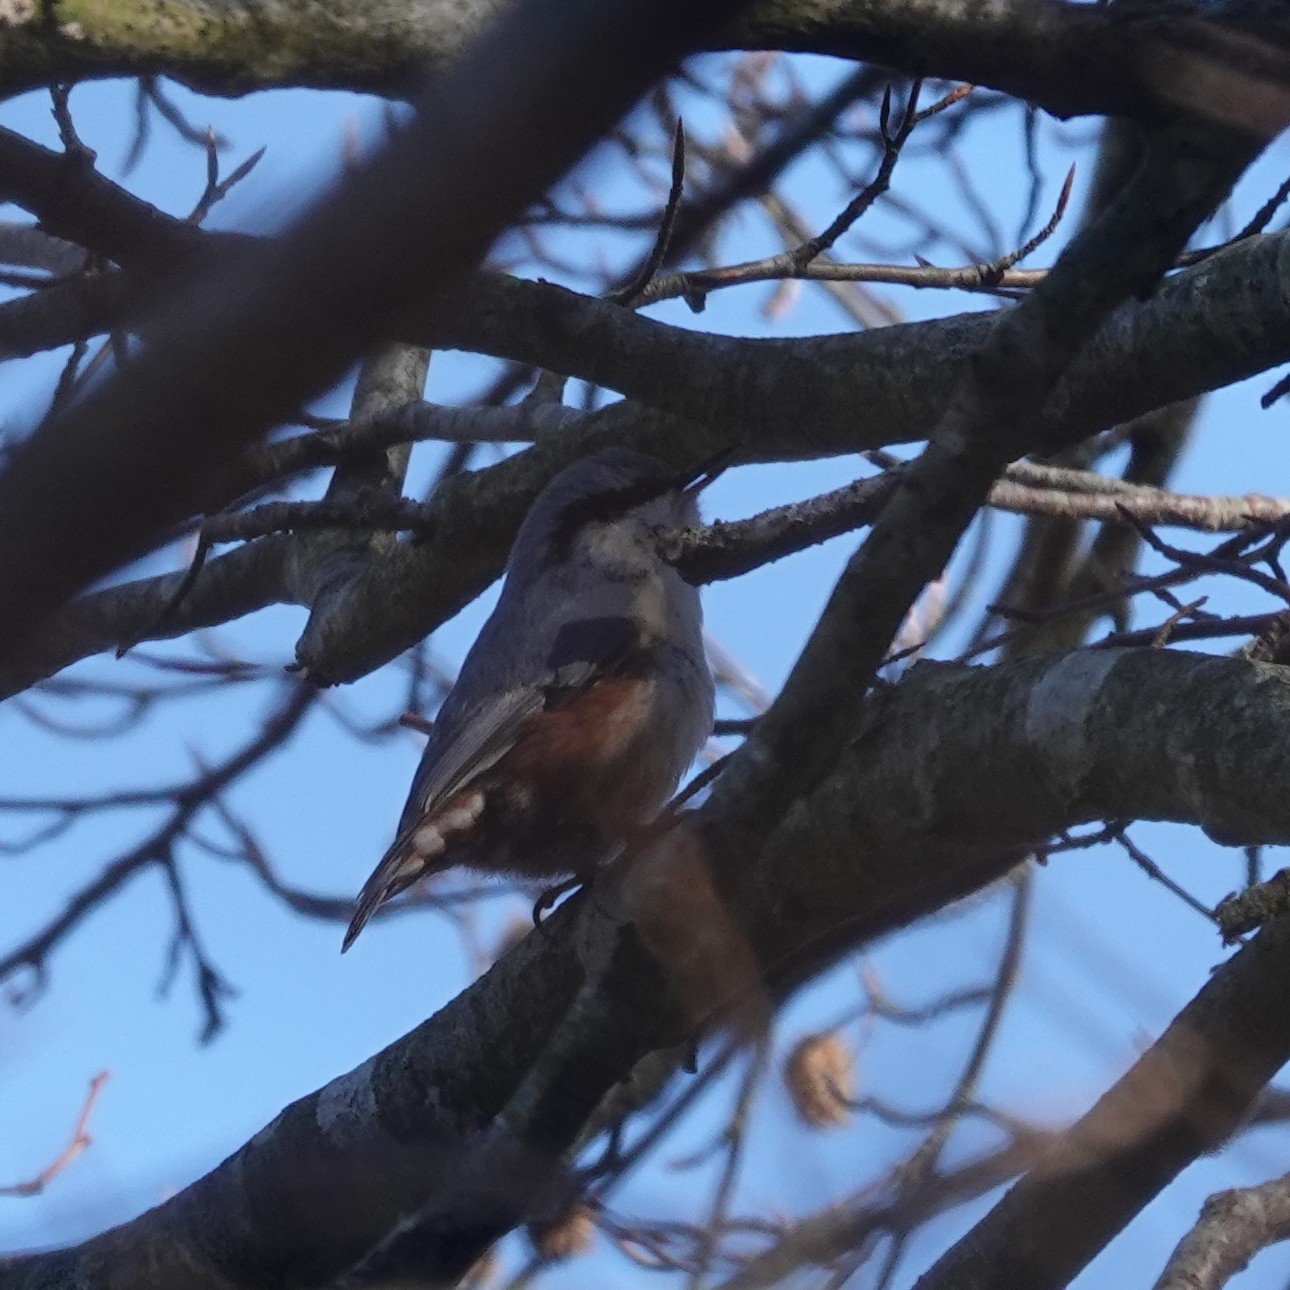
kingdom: Animalia
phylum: Chordata
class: Aves
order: Passeriformes
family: Sittidae
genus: Sitta
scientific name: Sitta europaea
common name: Eurasian nuthatch
